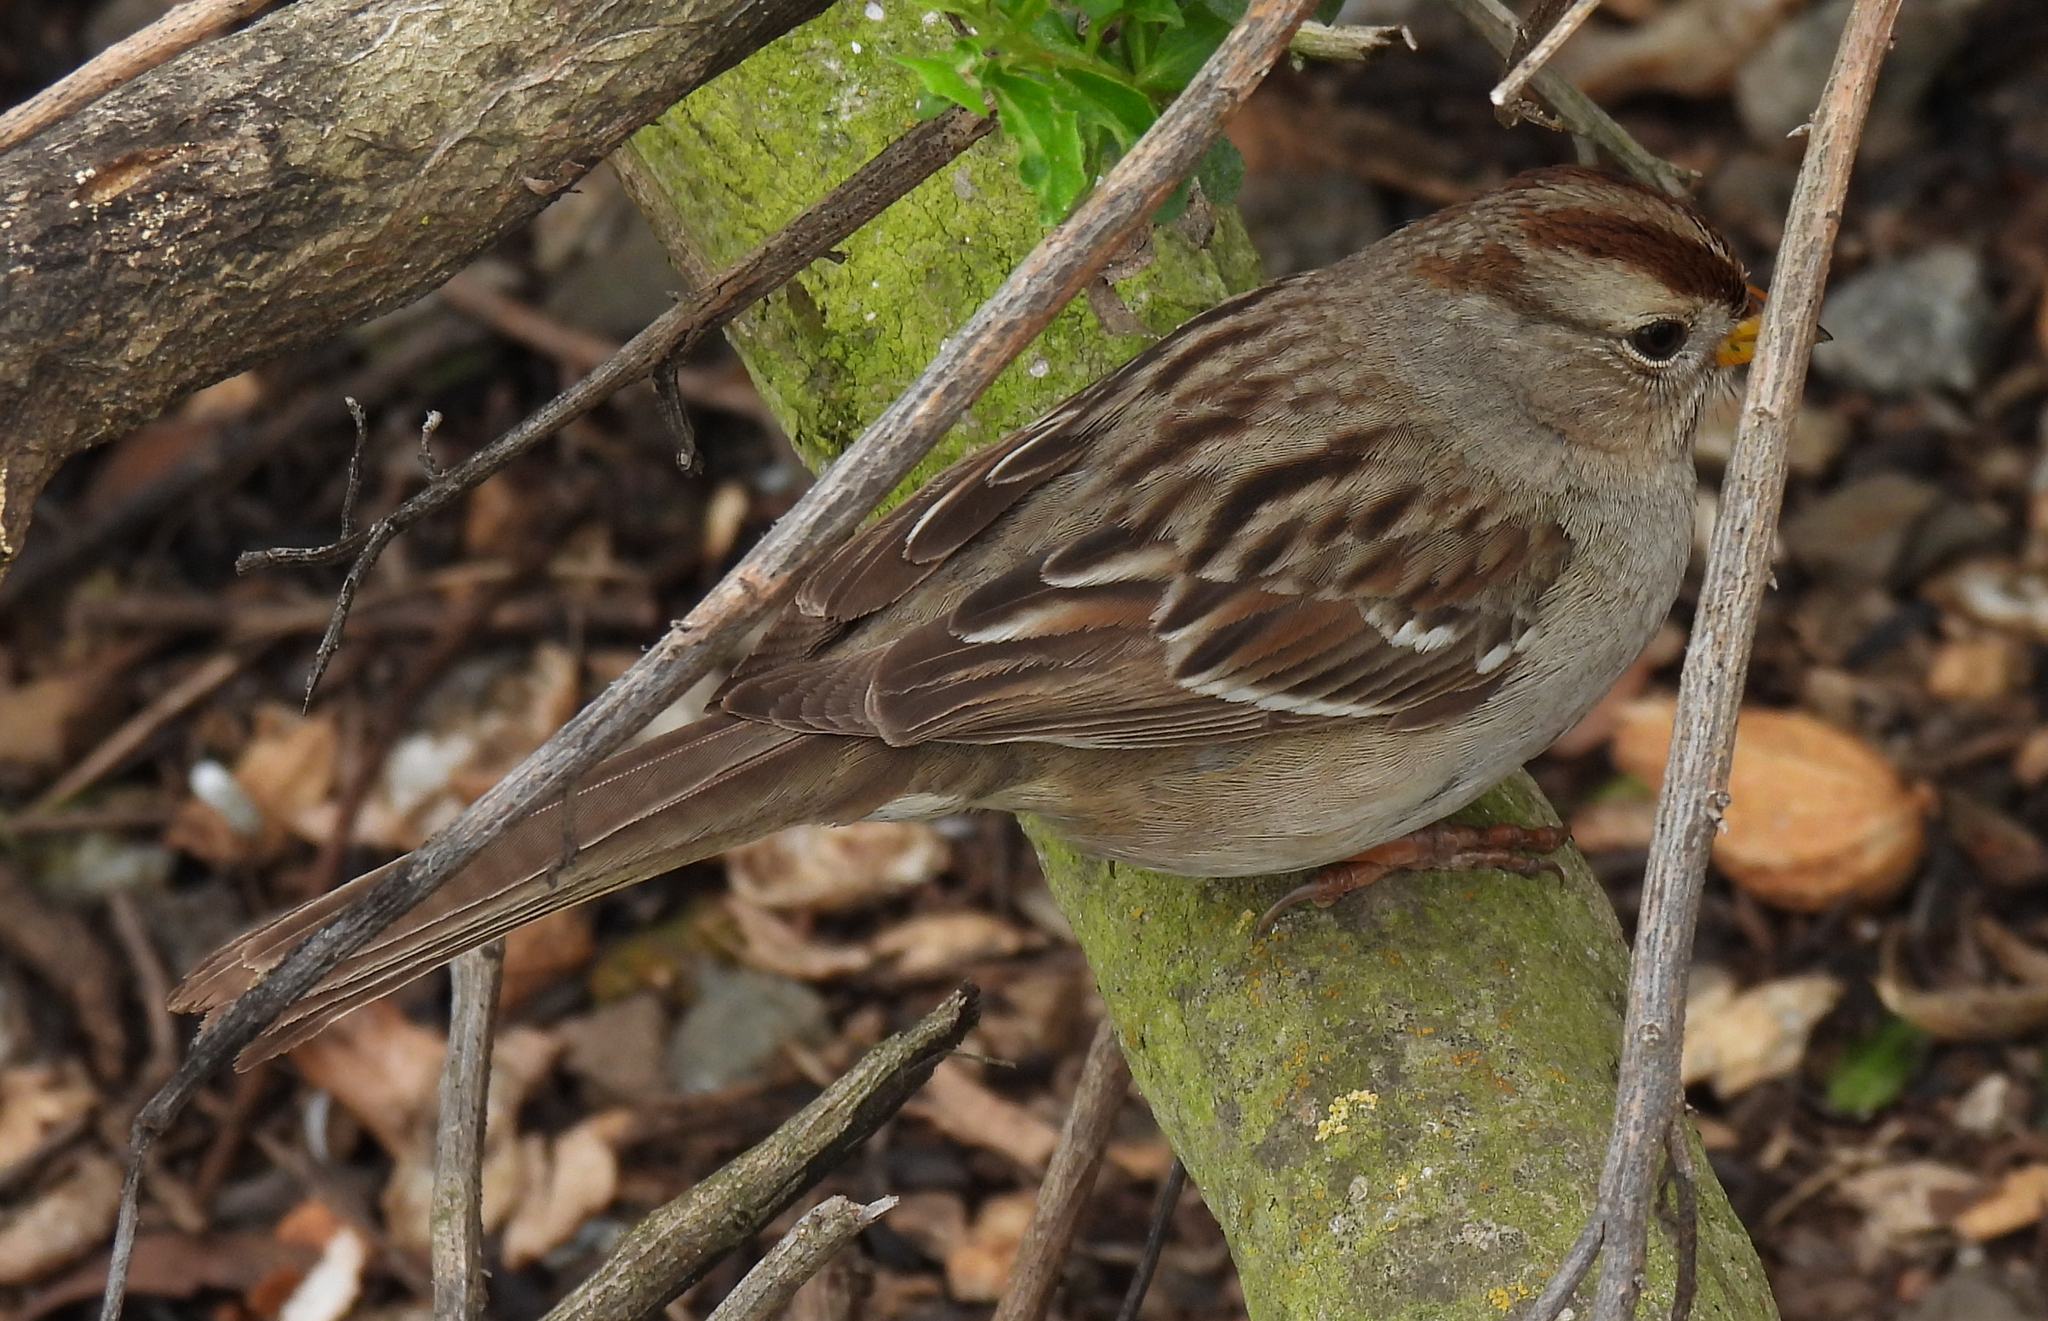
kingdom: Animalia
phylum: Chordata
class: Aves
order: Passeriformes
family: Passerellidae
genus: Zonotrichia
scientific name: Zonotrichia leucophrys
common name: White-crowned sparrow
